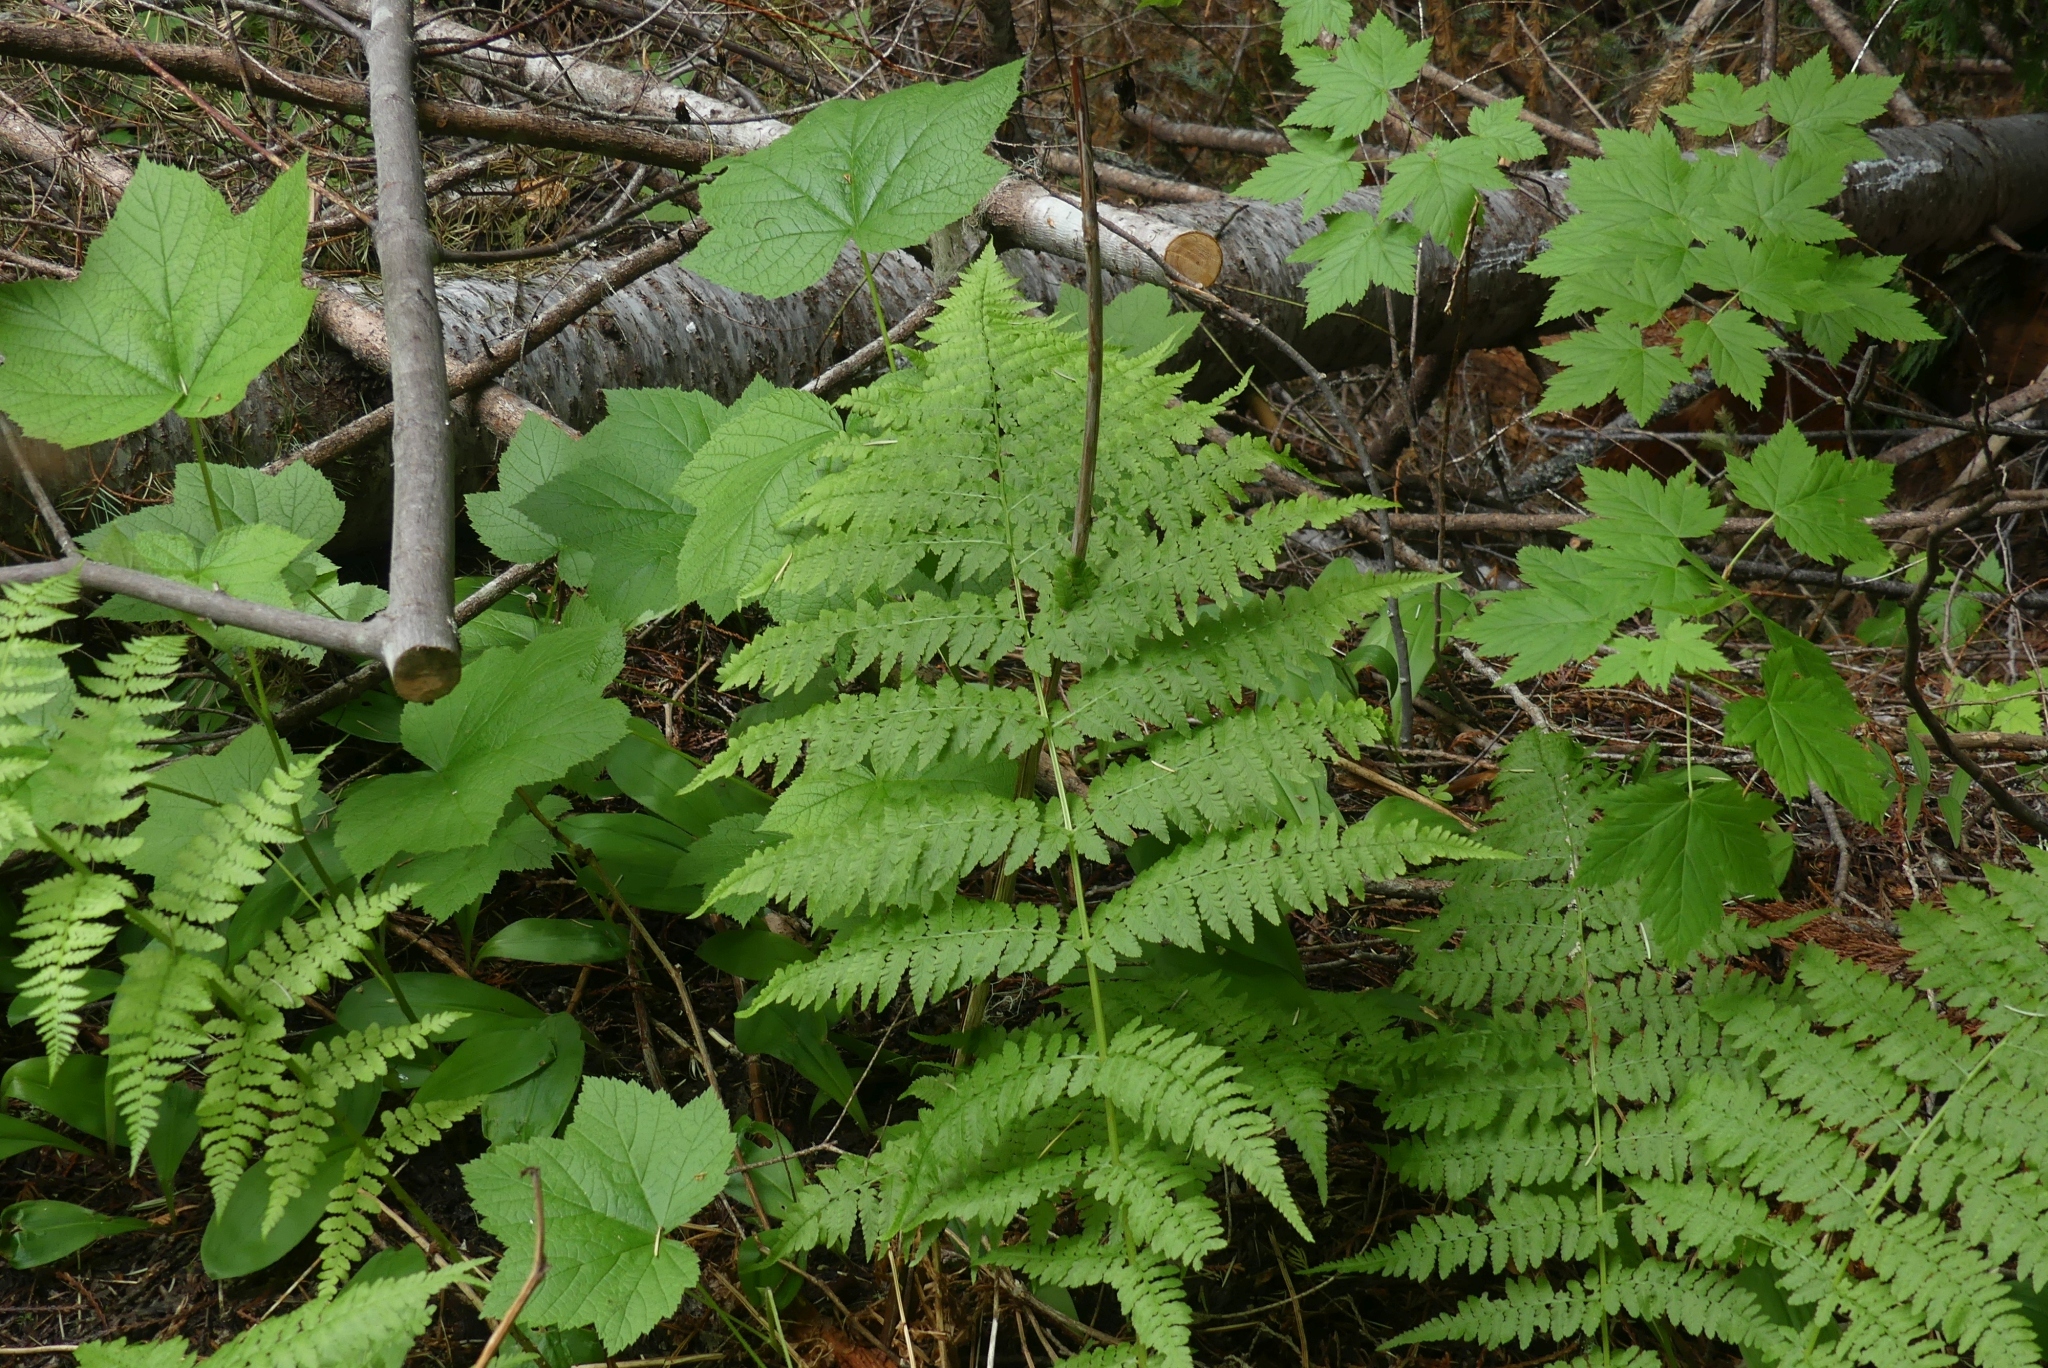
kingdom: Plantae
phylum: Tracheophyta
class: Polypodiopsida
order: Polypodiales
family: Athyriaceae
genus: Athyrium
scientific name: Athyrium cyclosorum
